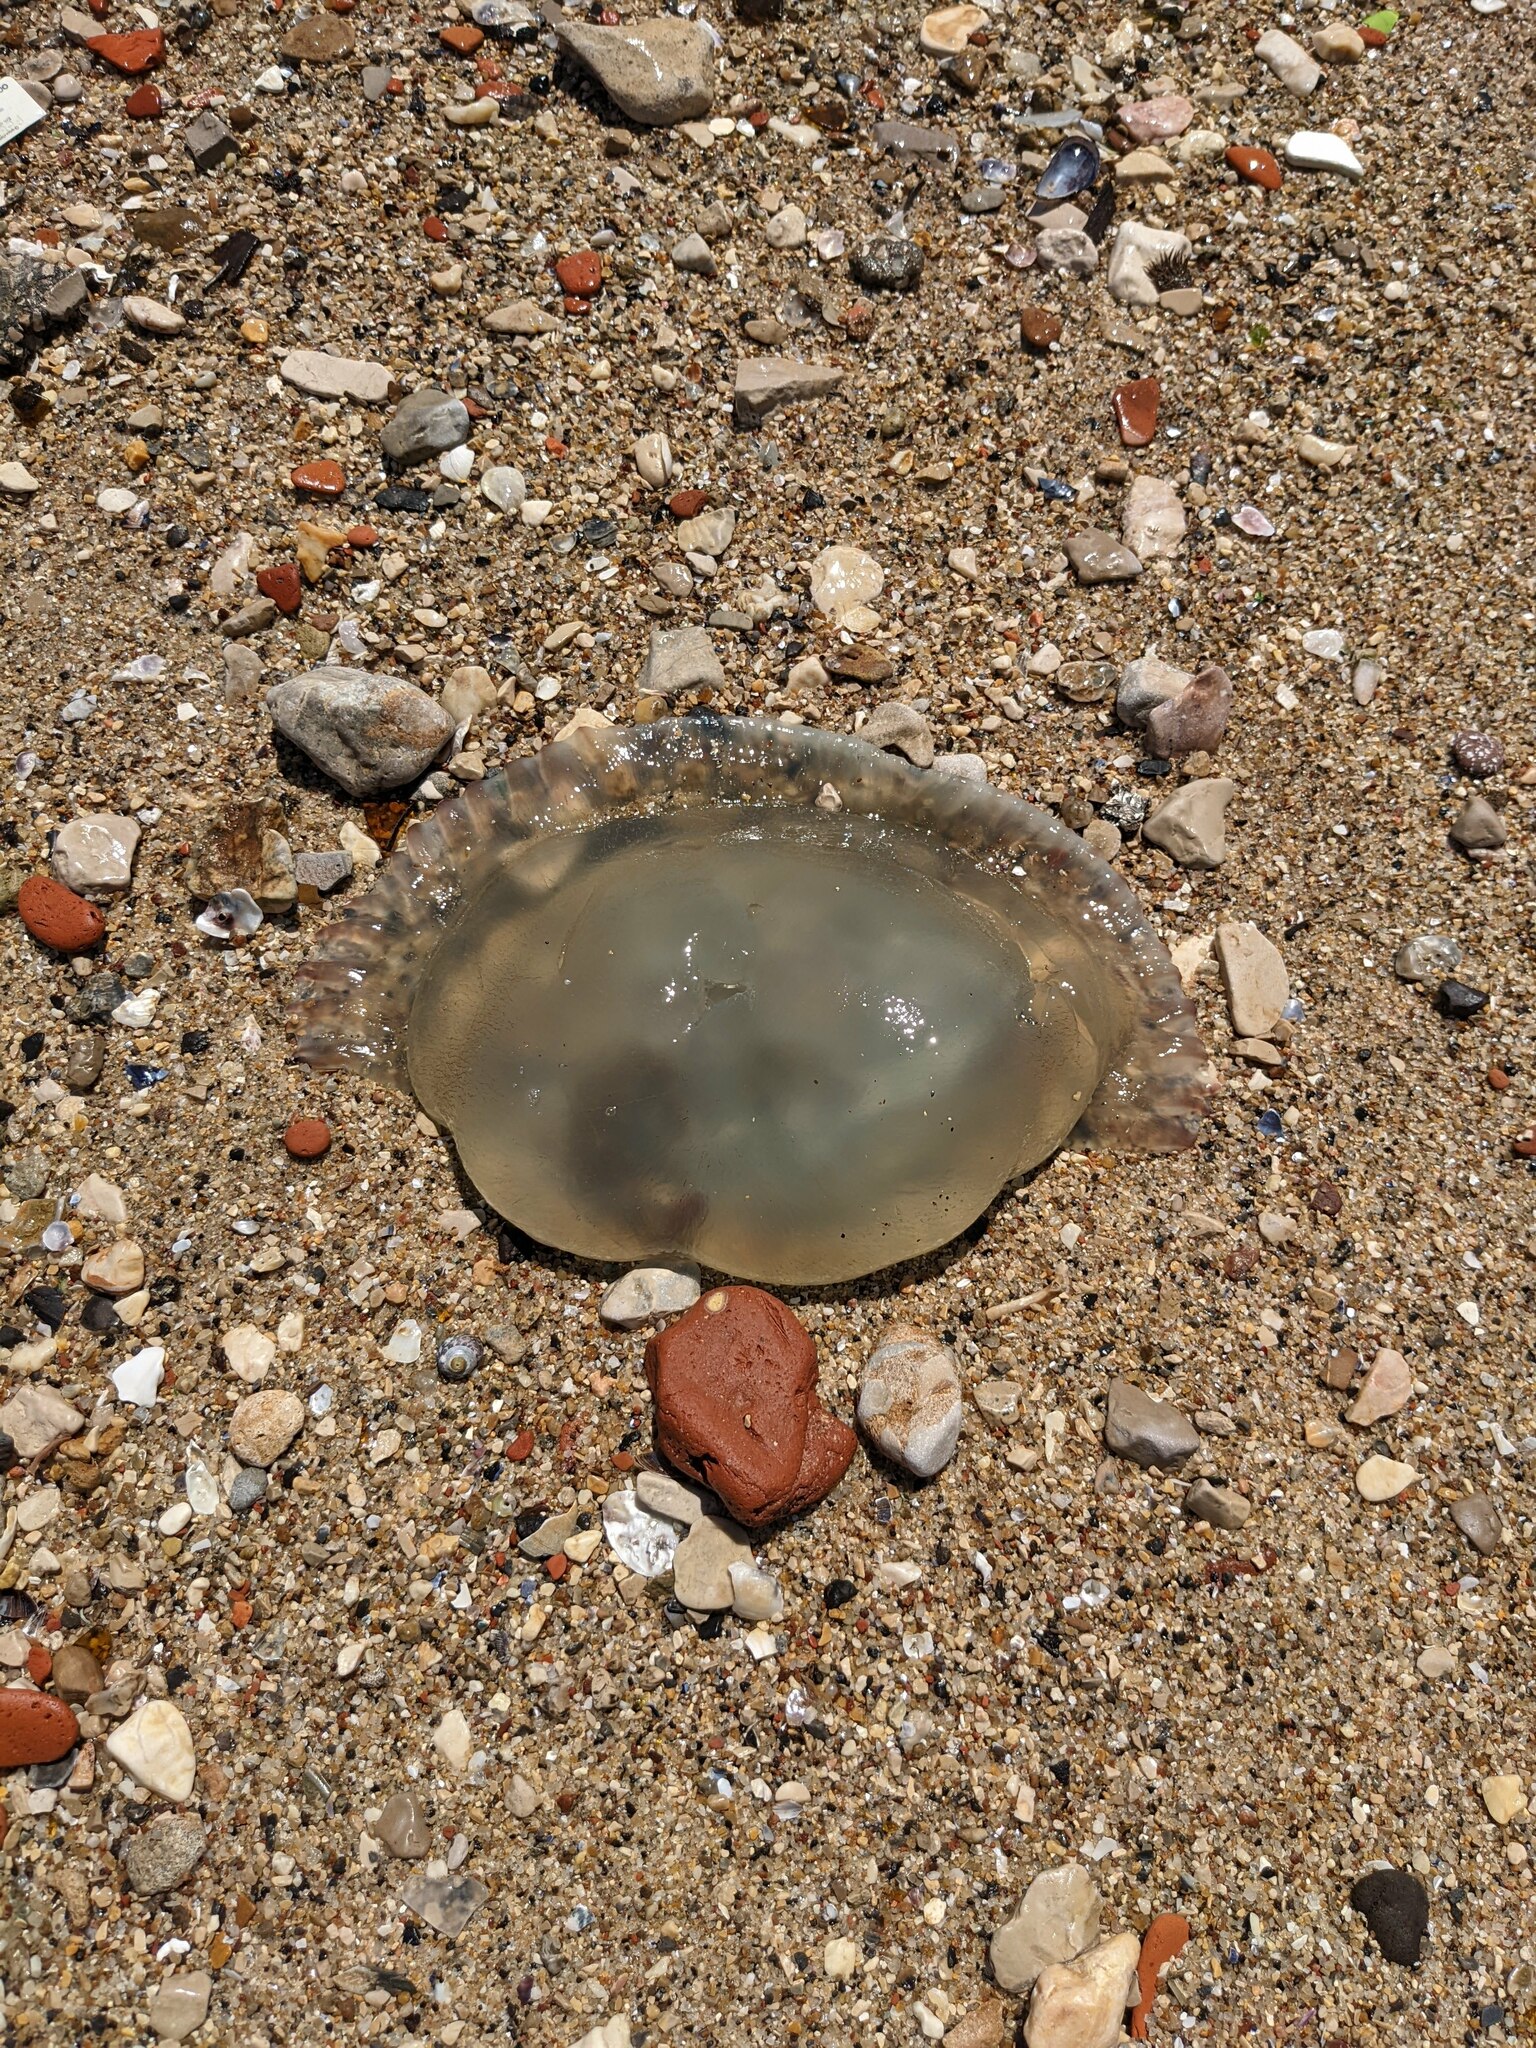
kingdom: Animalia
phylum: Cnidaria
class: Scyphozoa
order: Rhizostomeae
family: Catostylidae
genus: Catostylus
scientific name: Catostylus tagi
